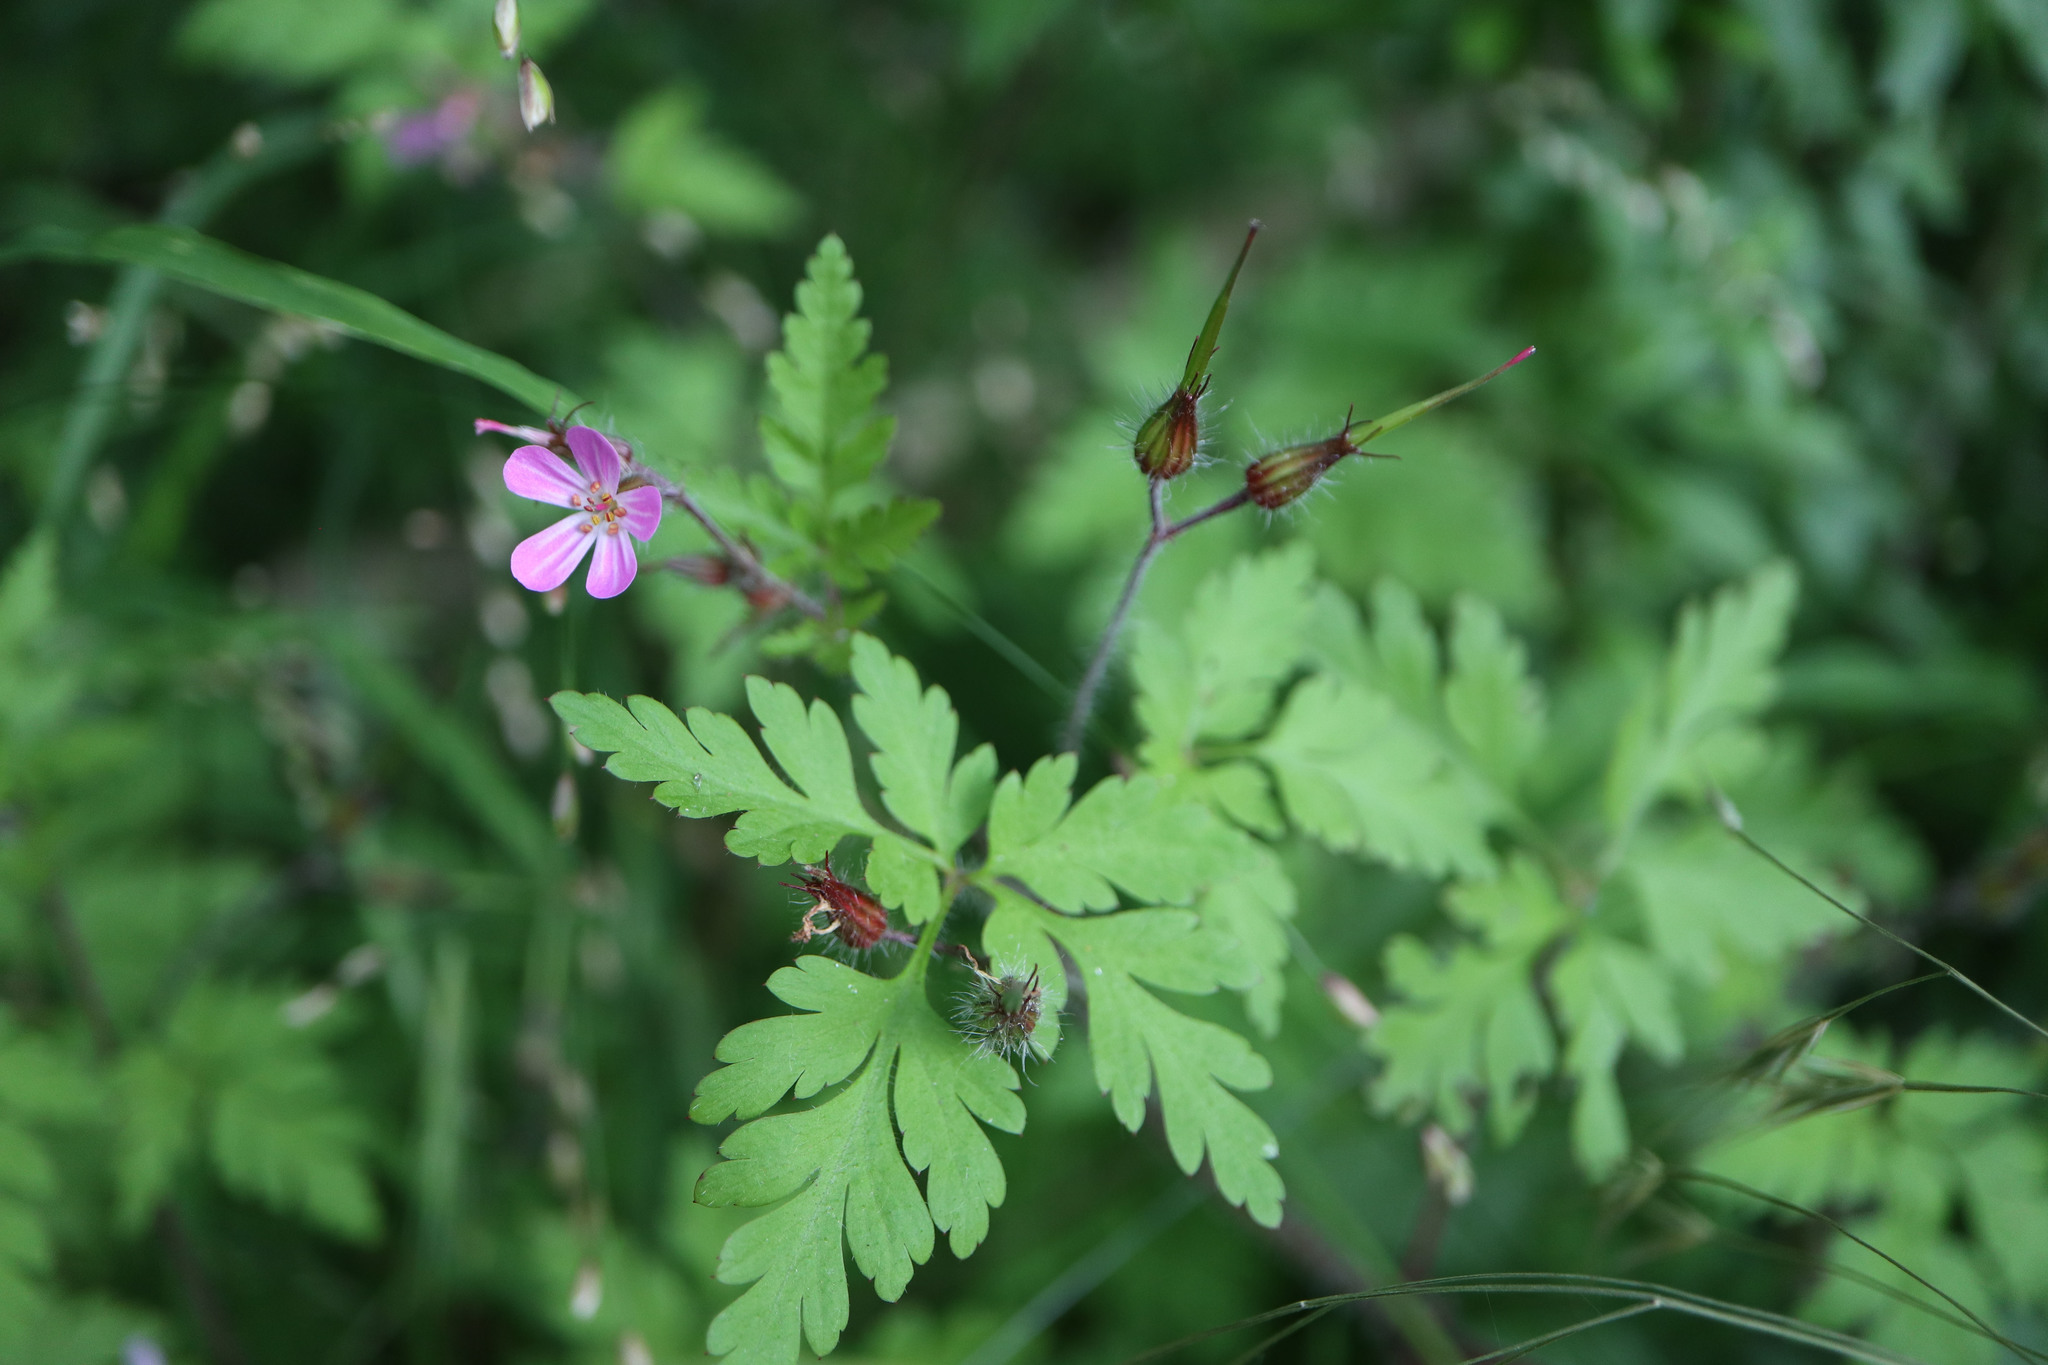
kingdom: Plantae
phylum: Tracheophyta
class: Magnoliopsida
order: Geraniales
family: Geraniaceae
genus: Geranium
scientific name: Geranium robertianum
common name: Herb-robert
